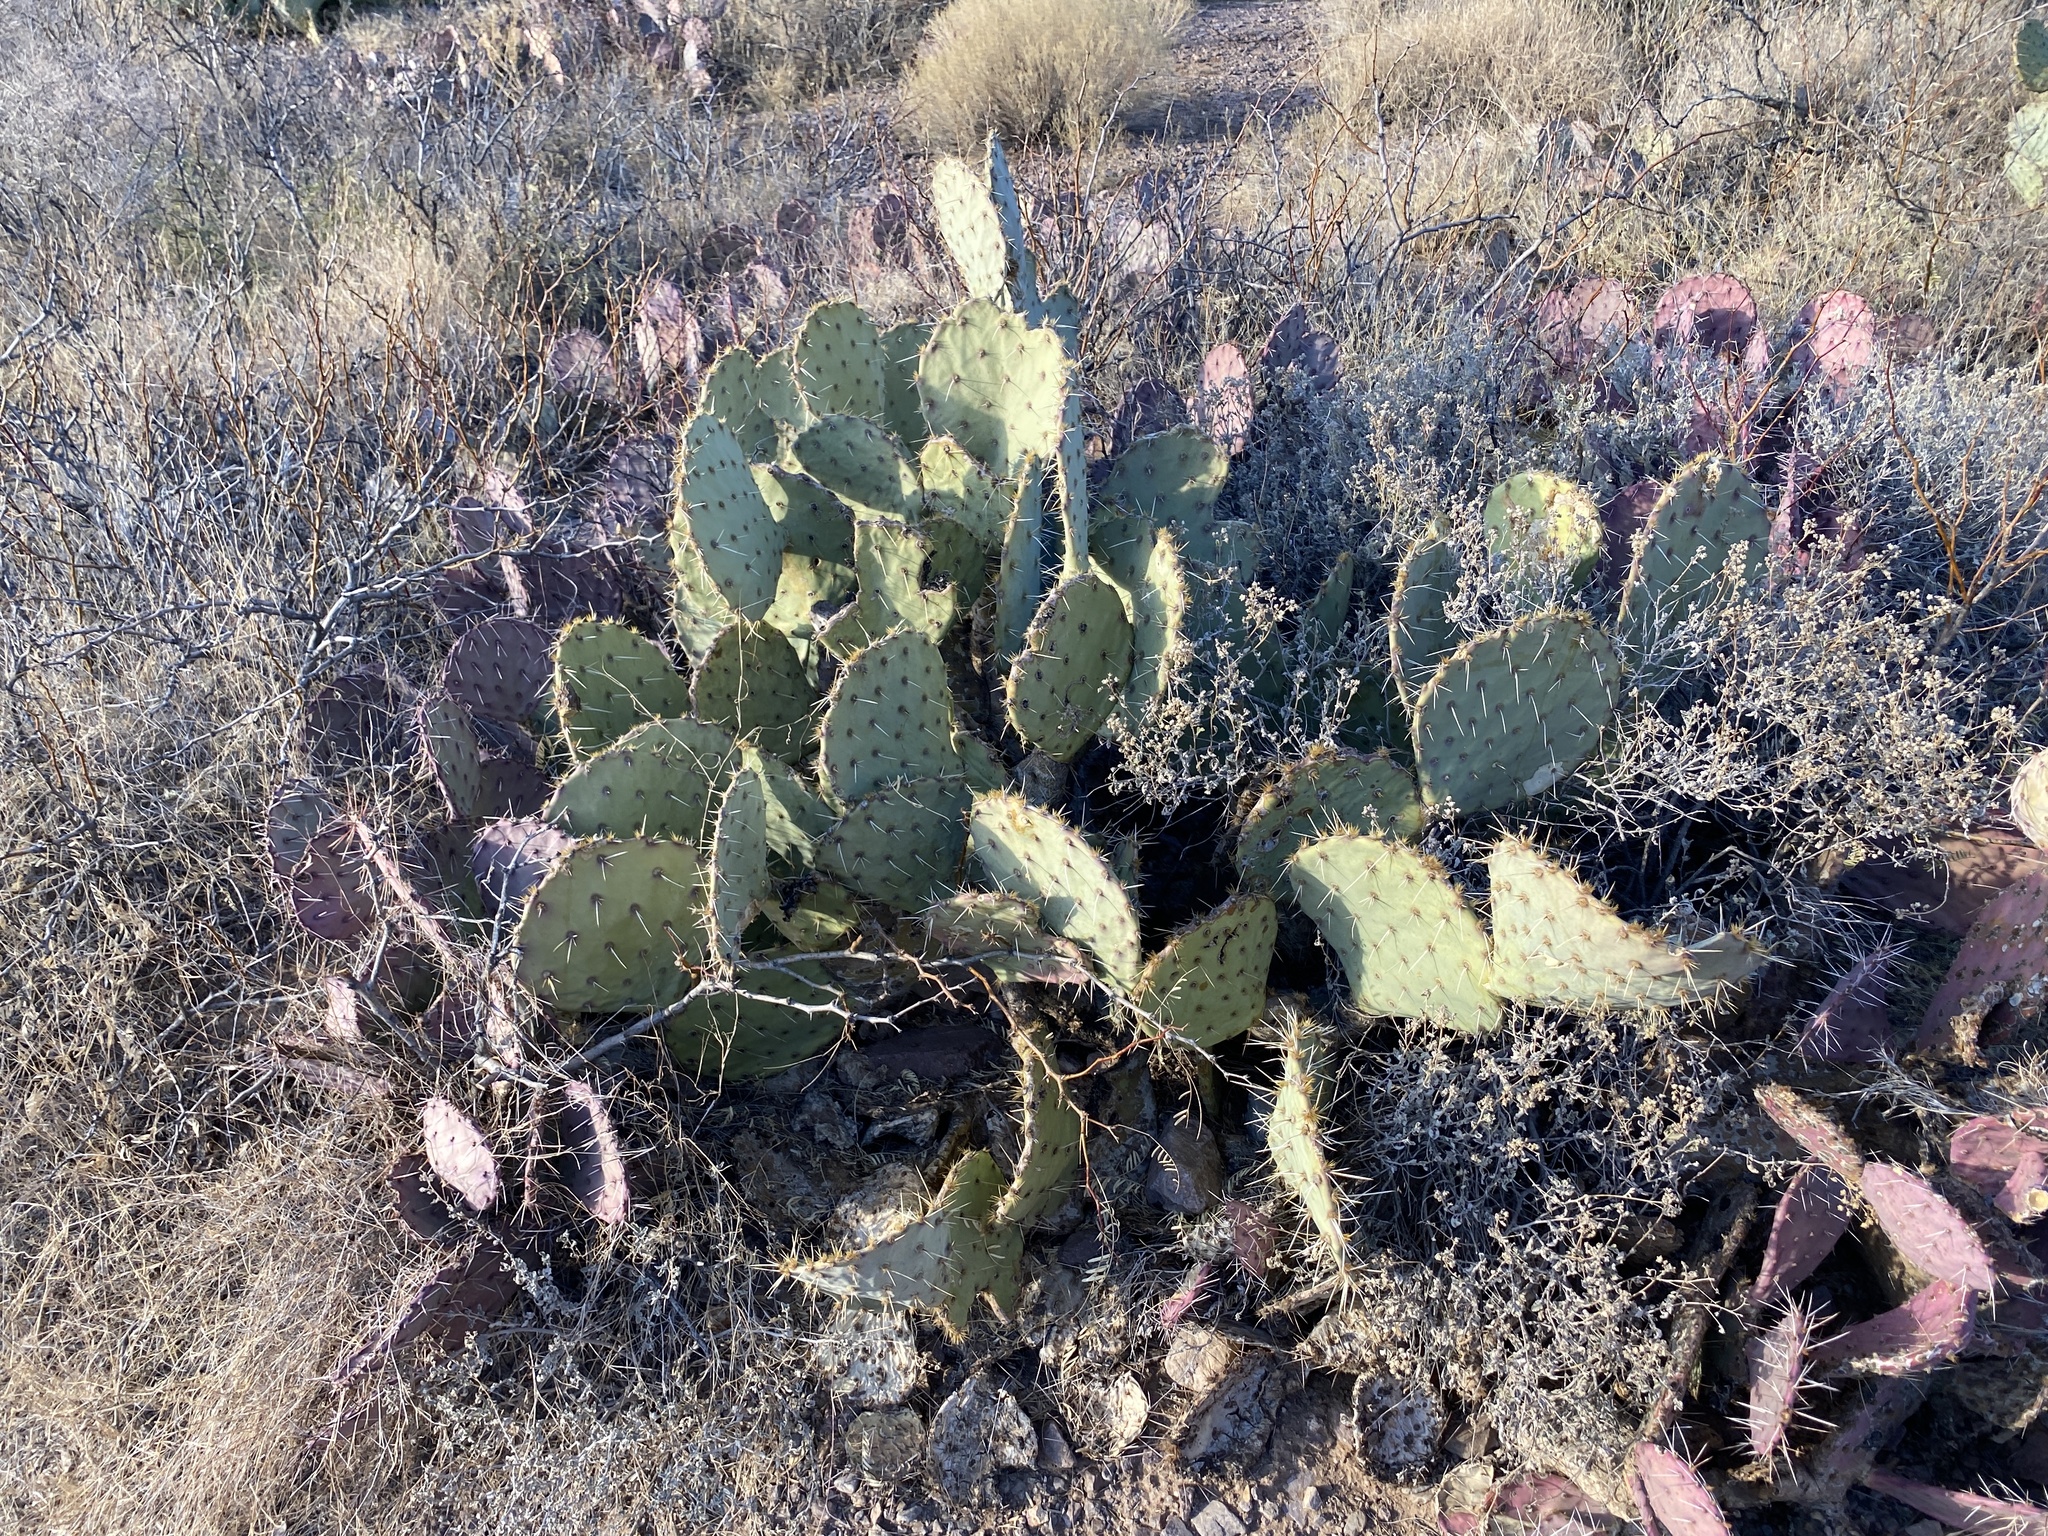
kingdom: Plantae
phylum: Tracheophyta
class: Magnoliopsida
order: Caryophyllales
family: Cactaceae
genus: Opuntia
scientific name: Opuntia engelmannii
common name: Cactus-apple
